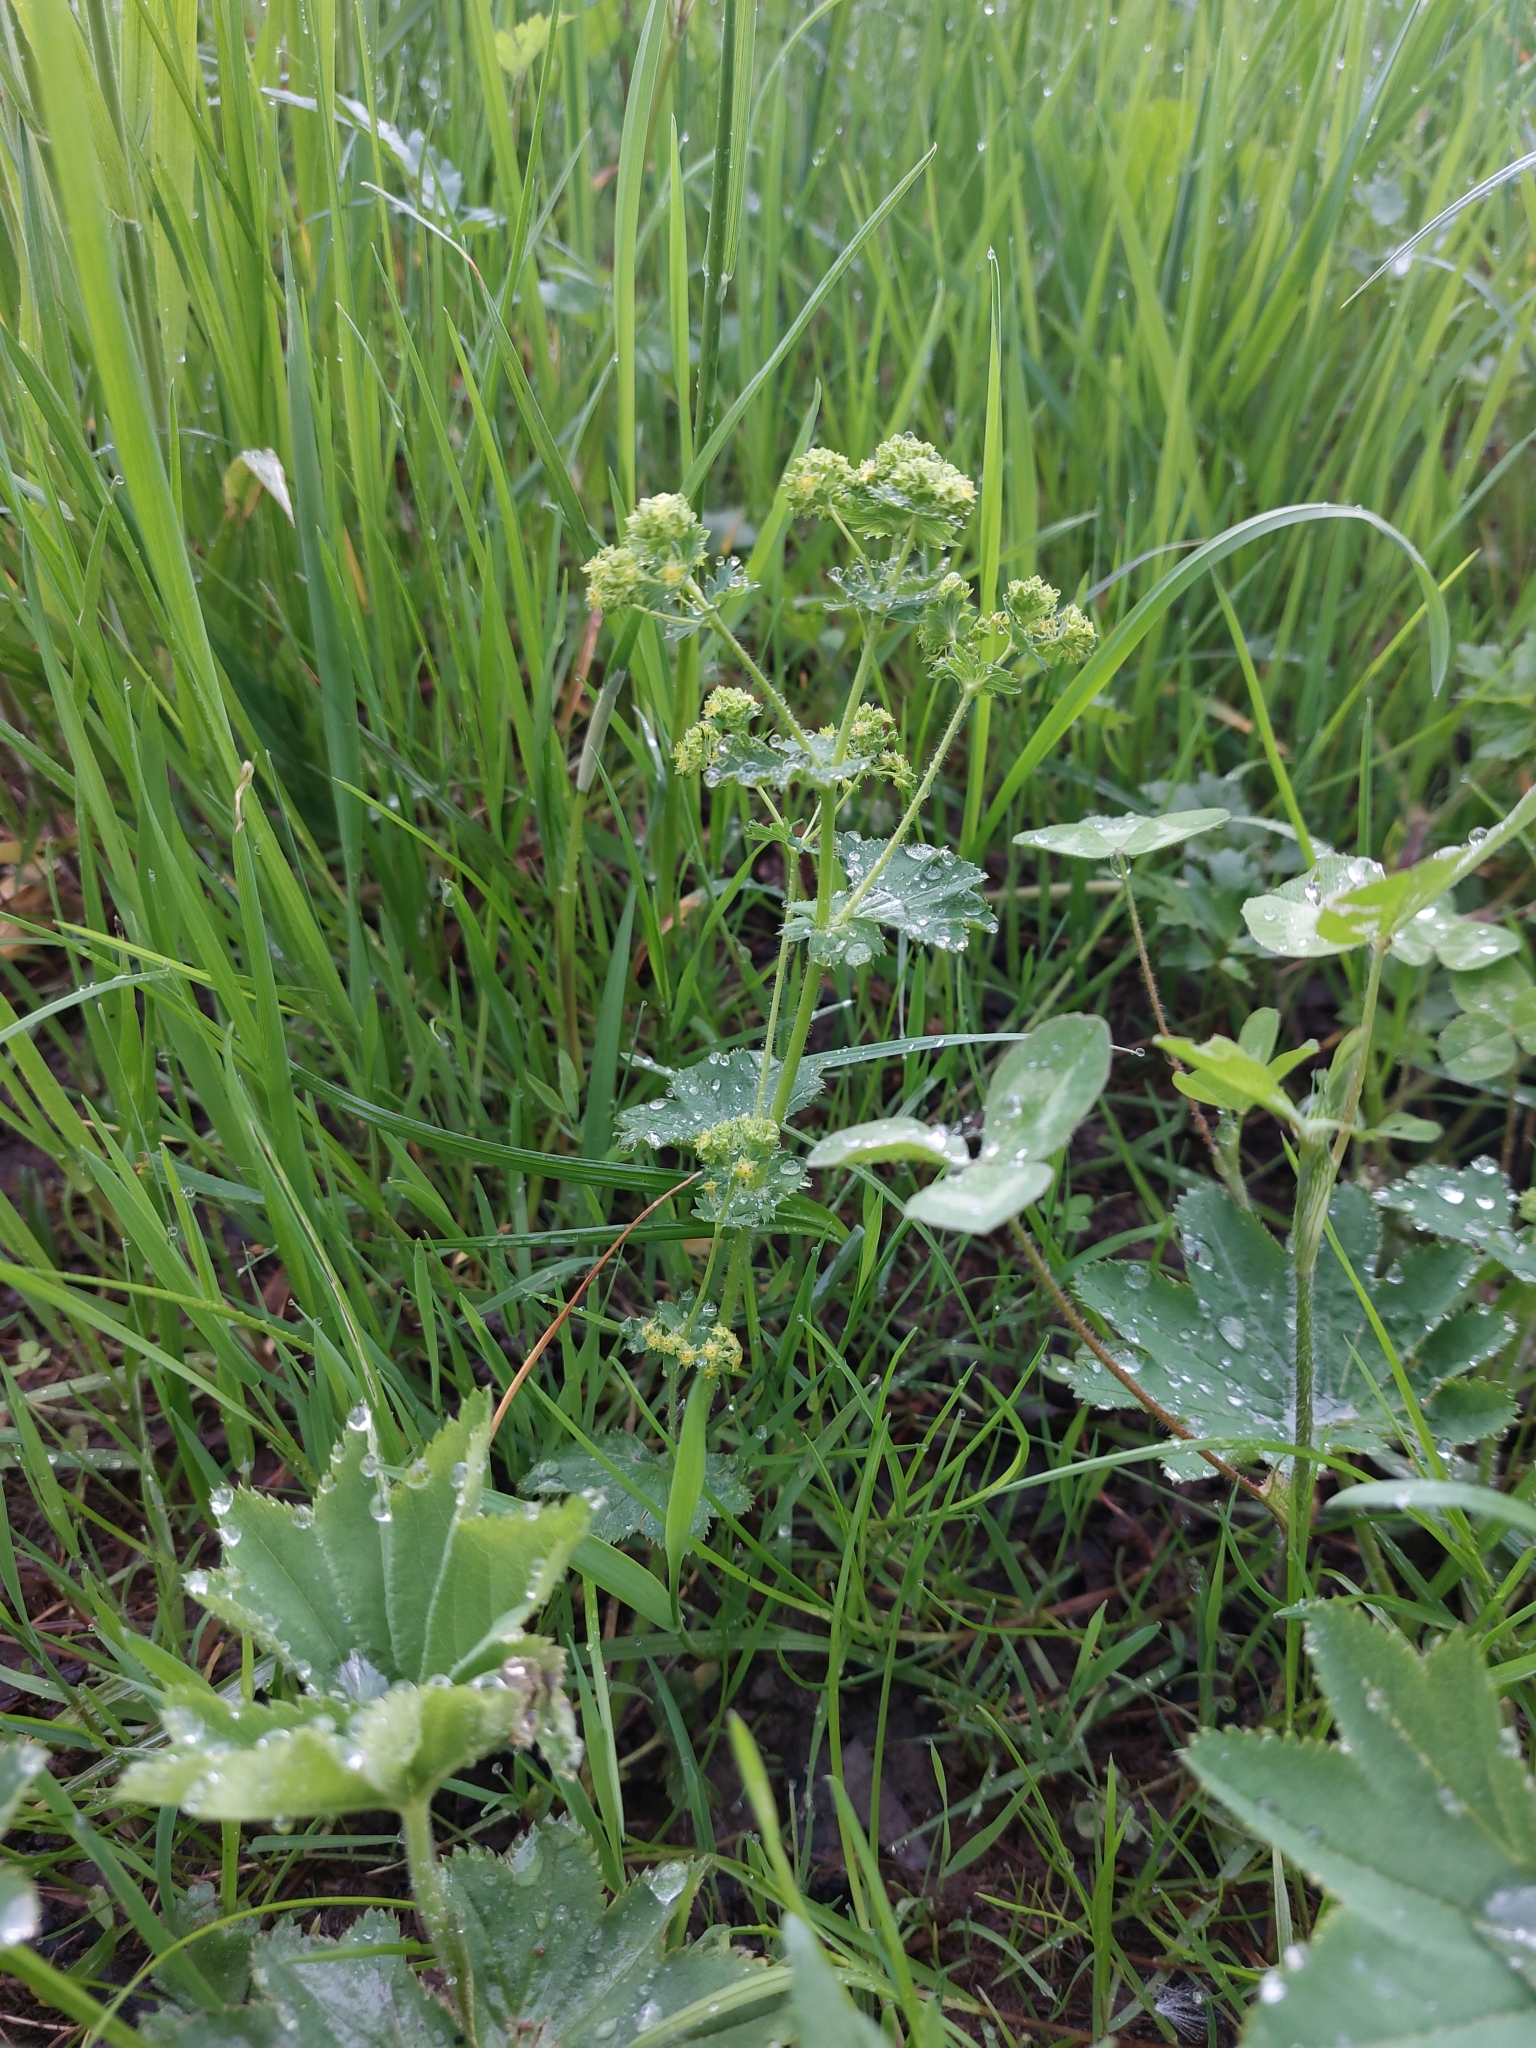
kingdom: Plantae
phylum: Tracheophyta
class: Magnoliopsida
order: Rosales
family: Rosaceae
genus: Alchemilla
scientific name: Alchemilla xanthochlora
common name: Intermediate lady's-mantle
